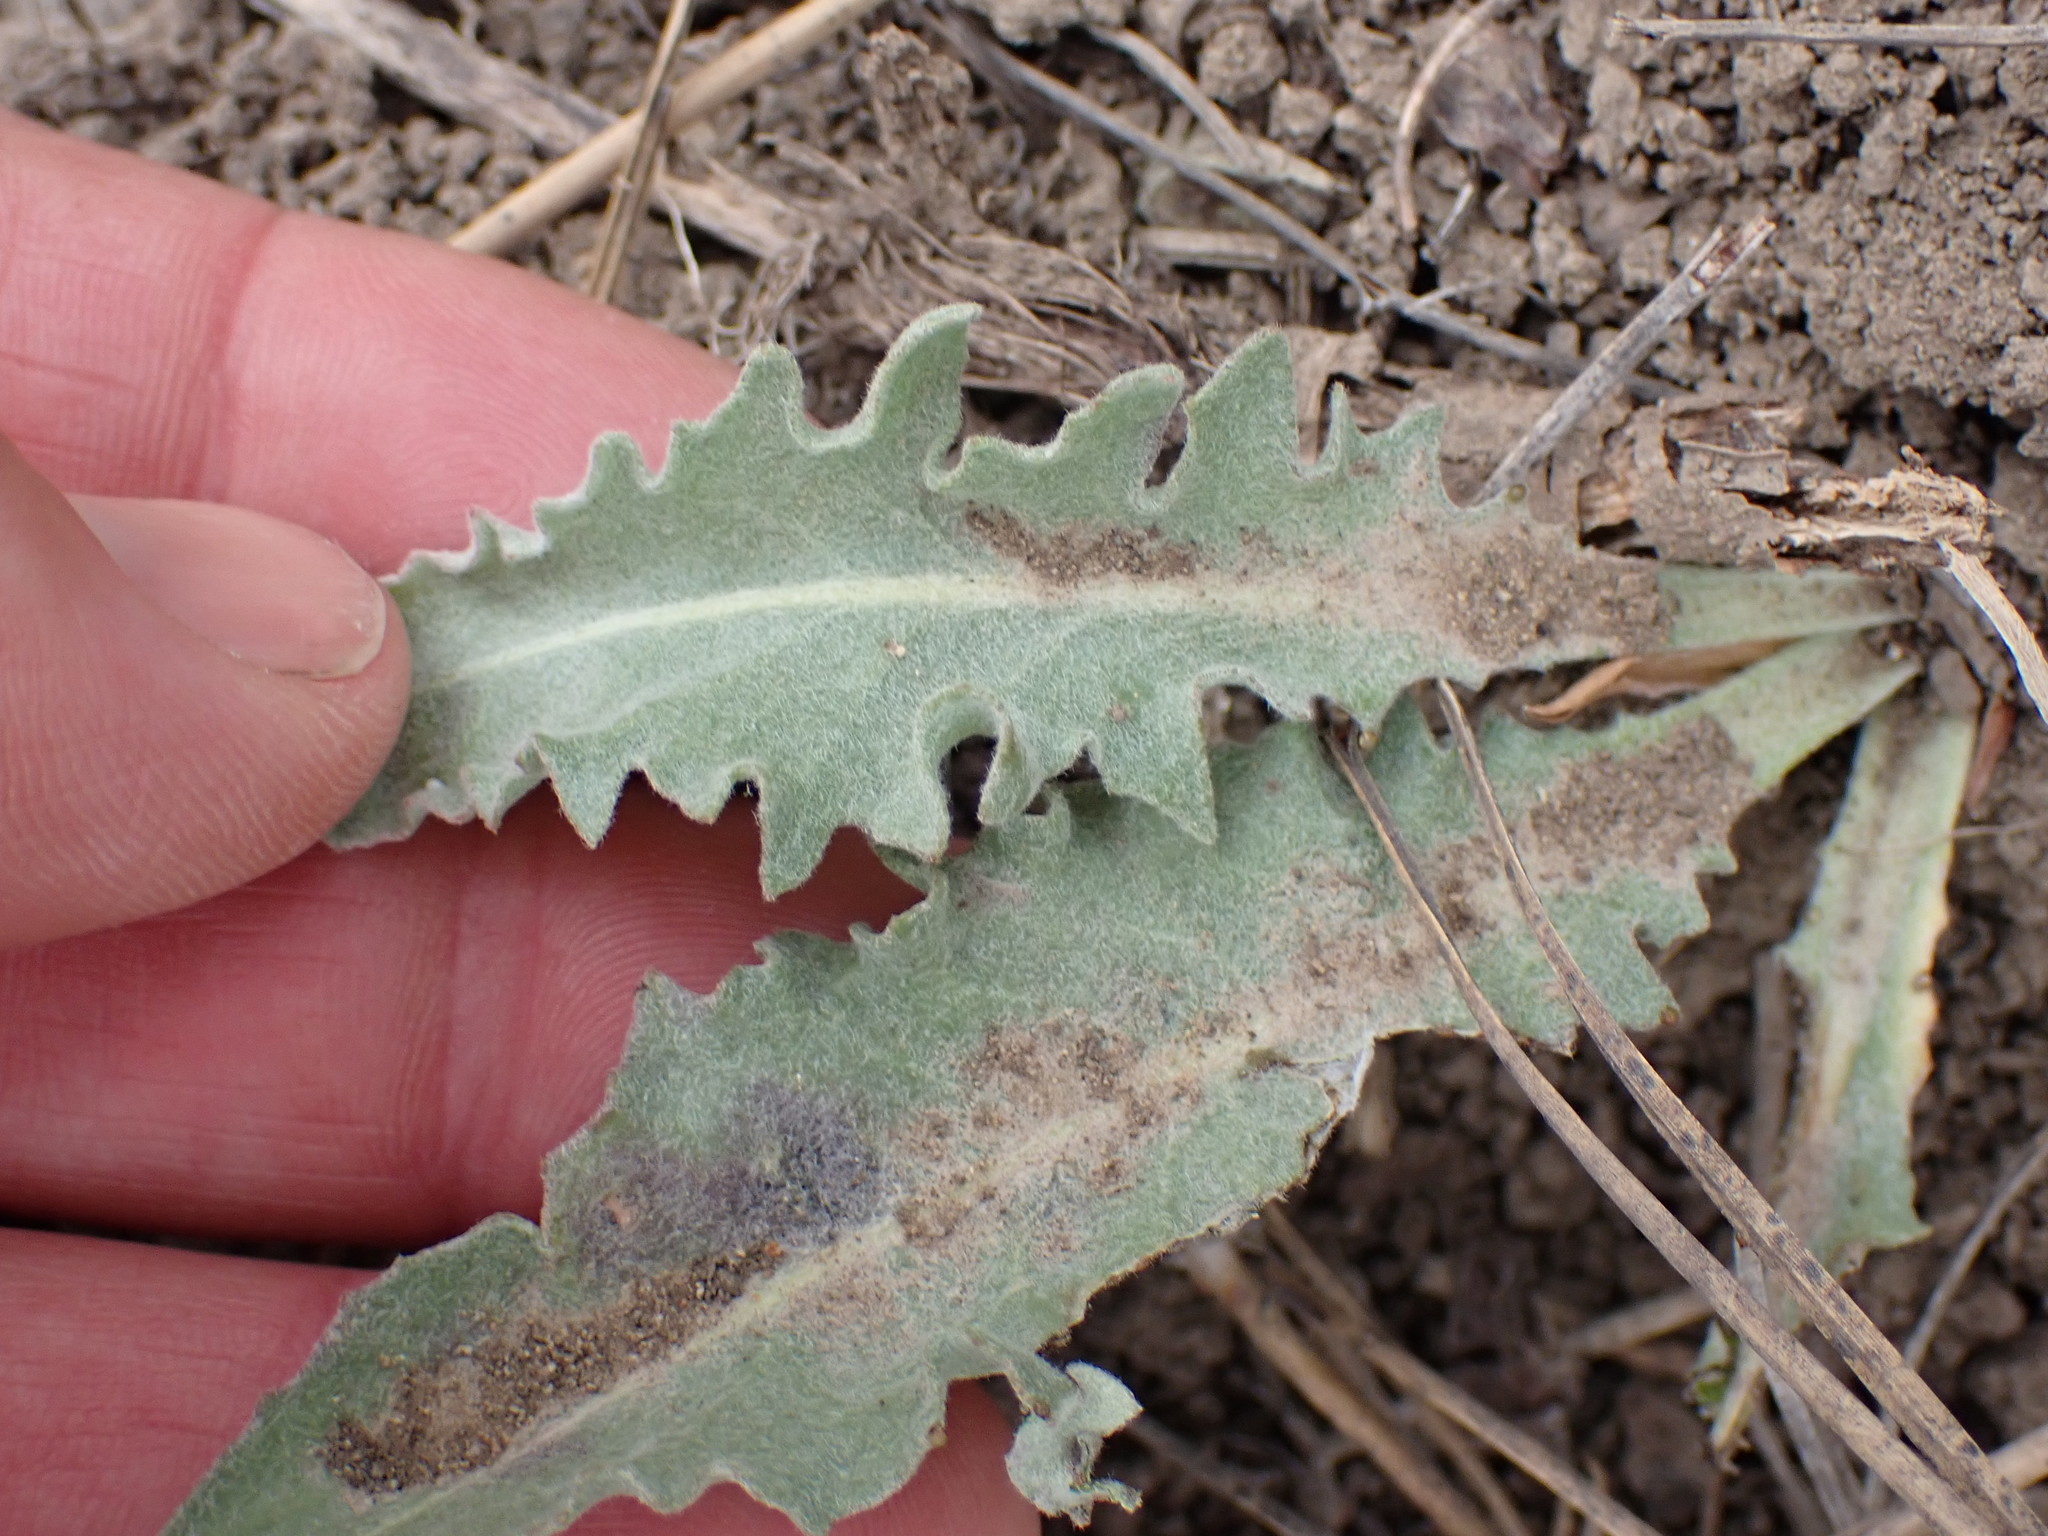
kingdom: Plantae
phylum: Tracheophyta
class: Magnoliopsida
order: Asterales
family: Asteraceae
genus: Crepis
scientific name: Crepis occidentalis
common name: Gray hawk's-beard
